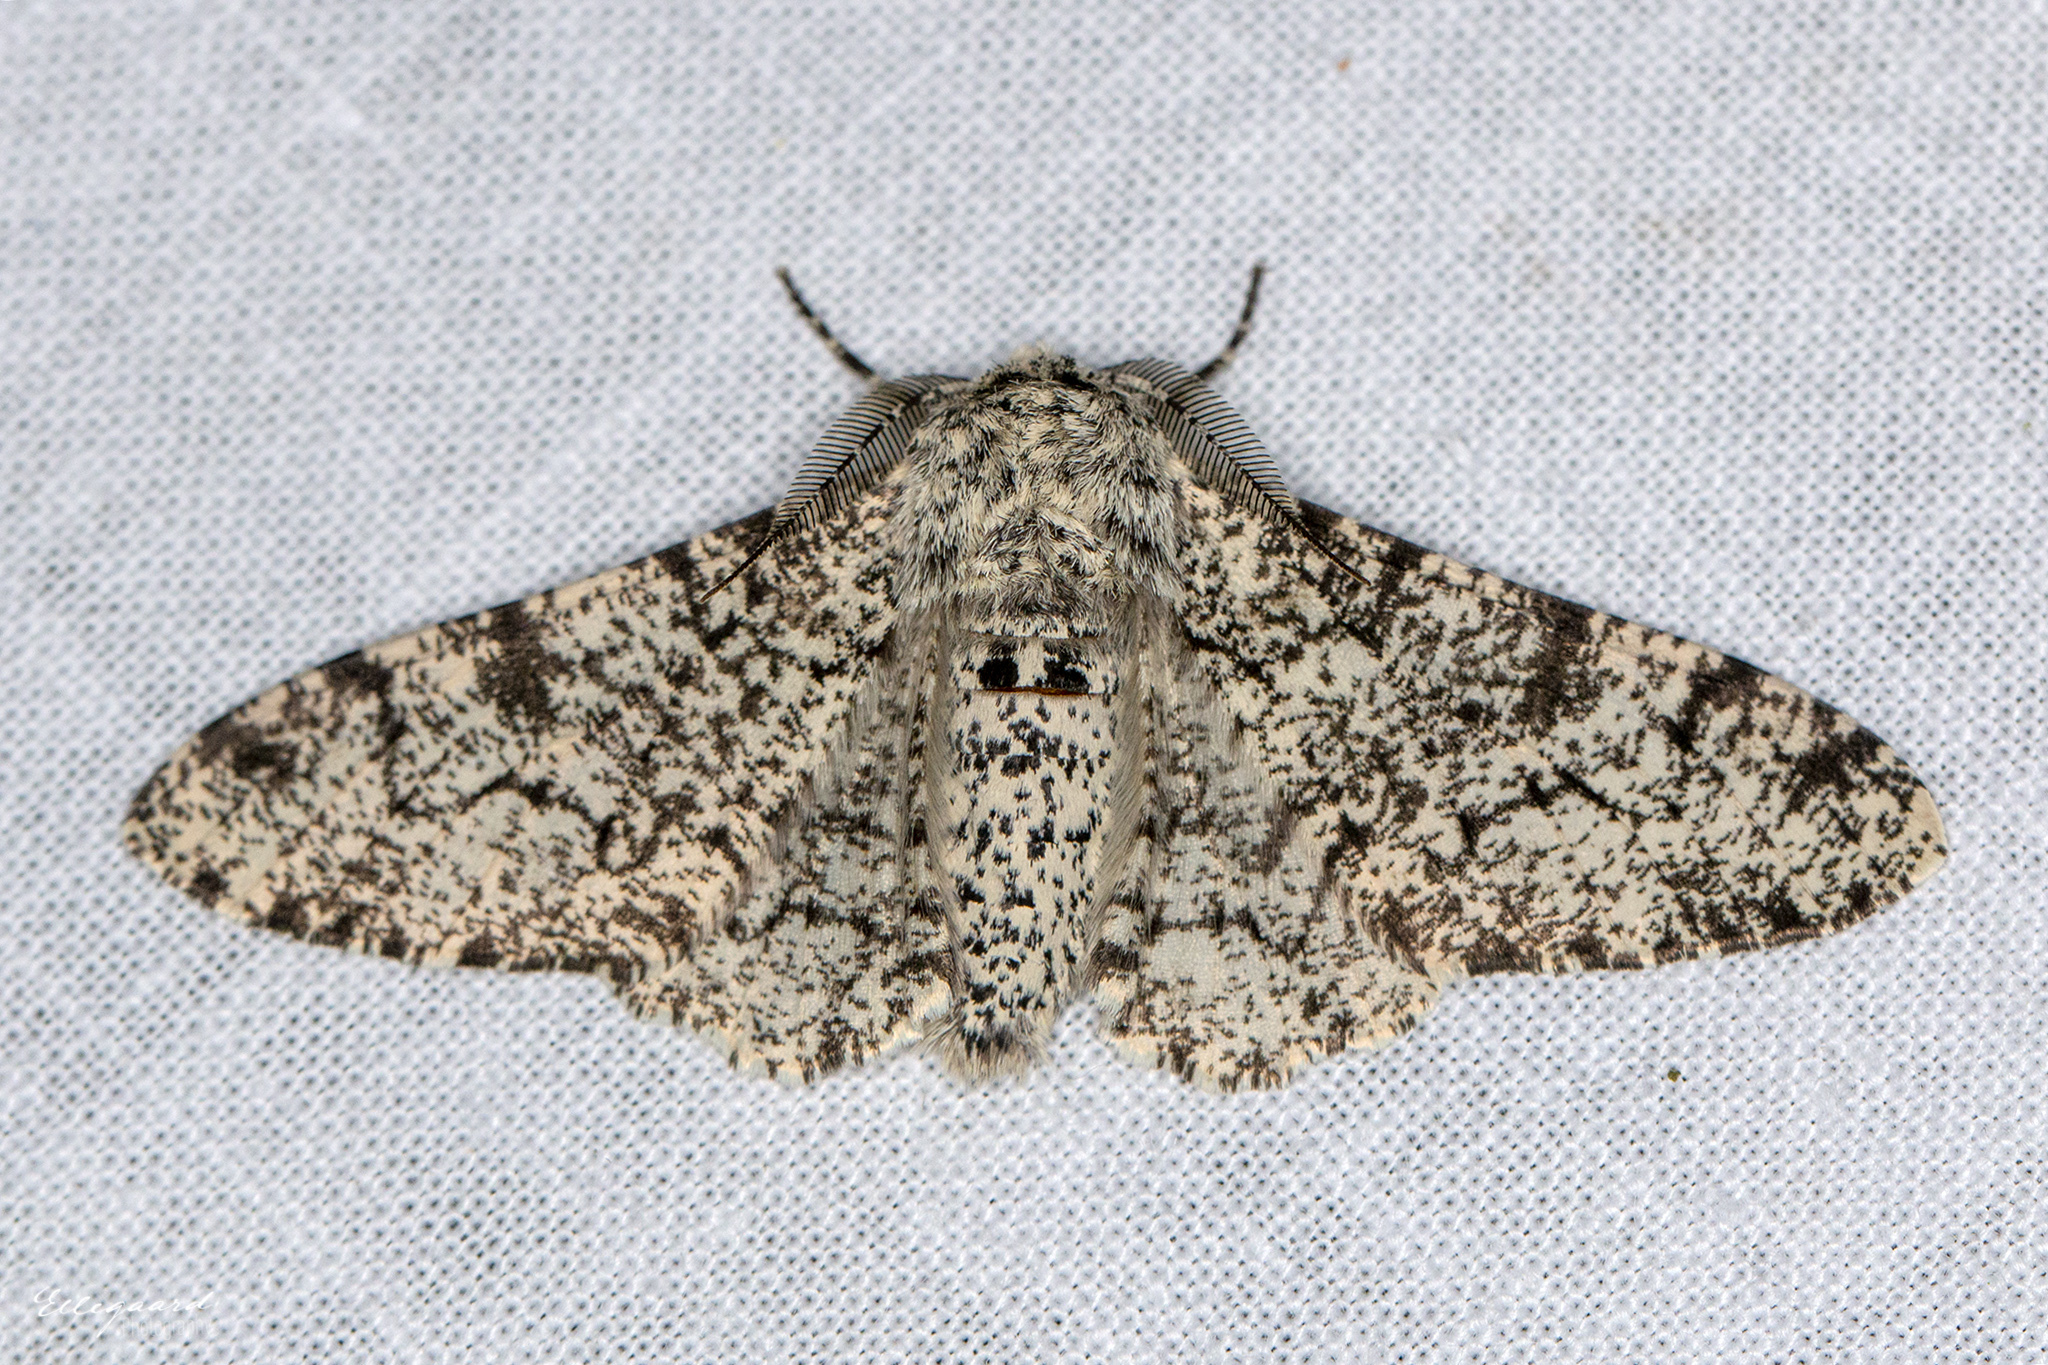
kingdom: Animalia
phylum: Arthropoda
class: Insecta
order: Lepidoptera
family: Geometridae
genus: Biston
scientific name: Biston betularia
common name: Peppered moth
